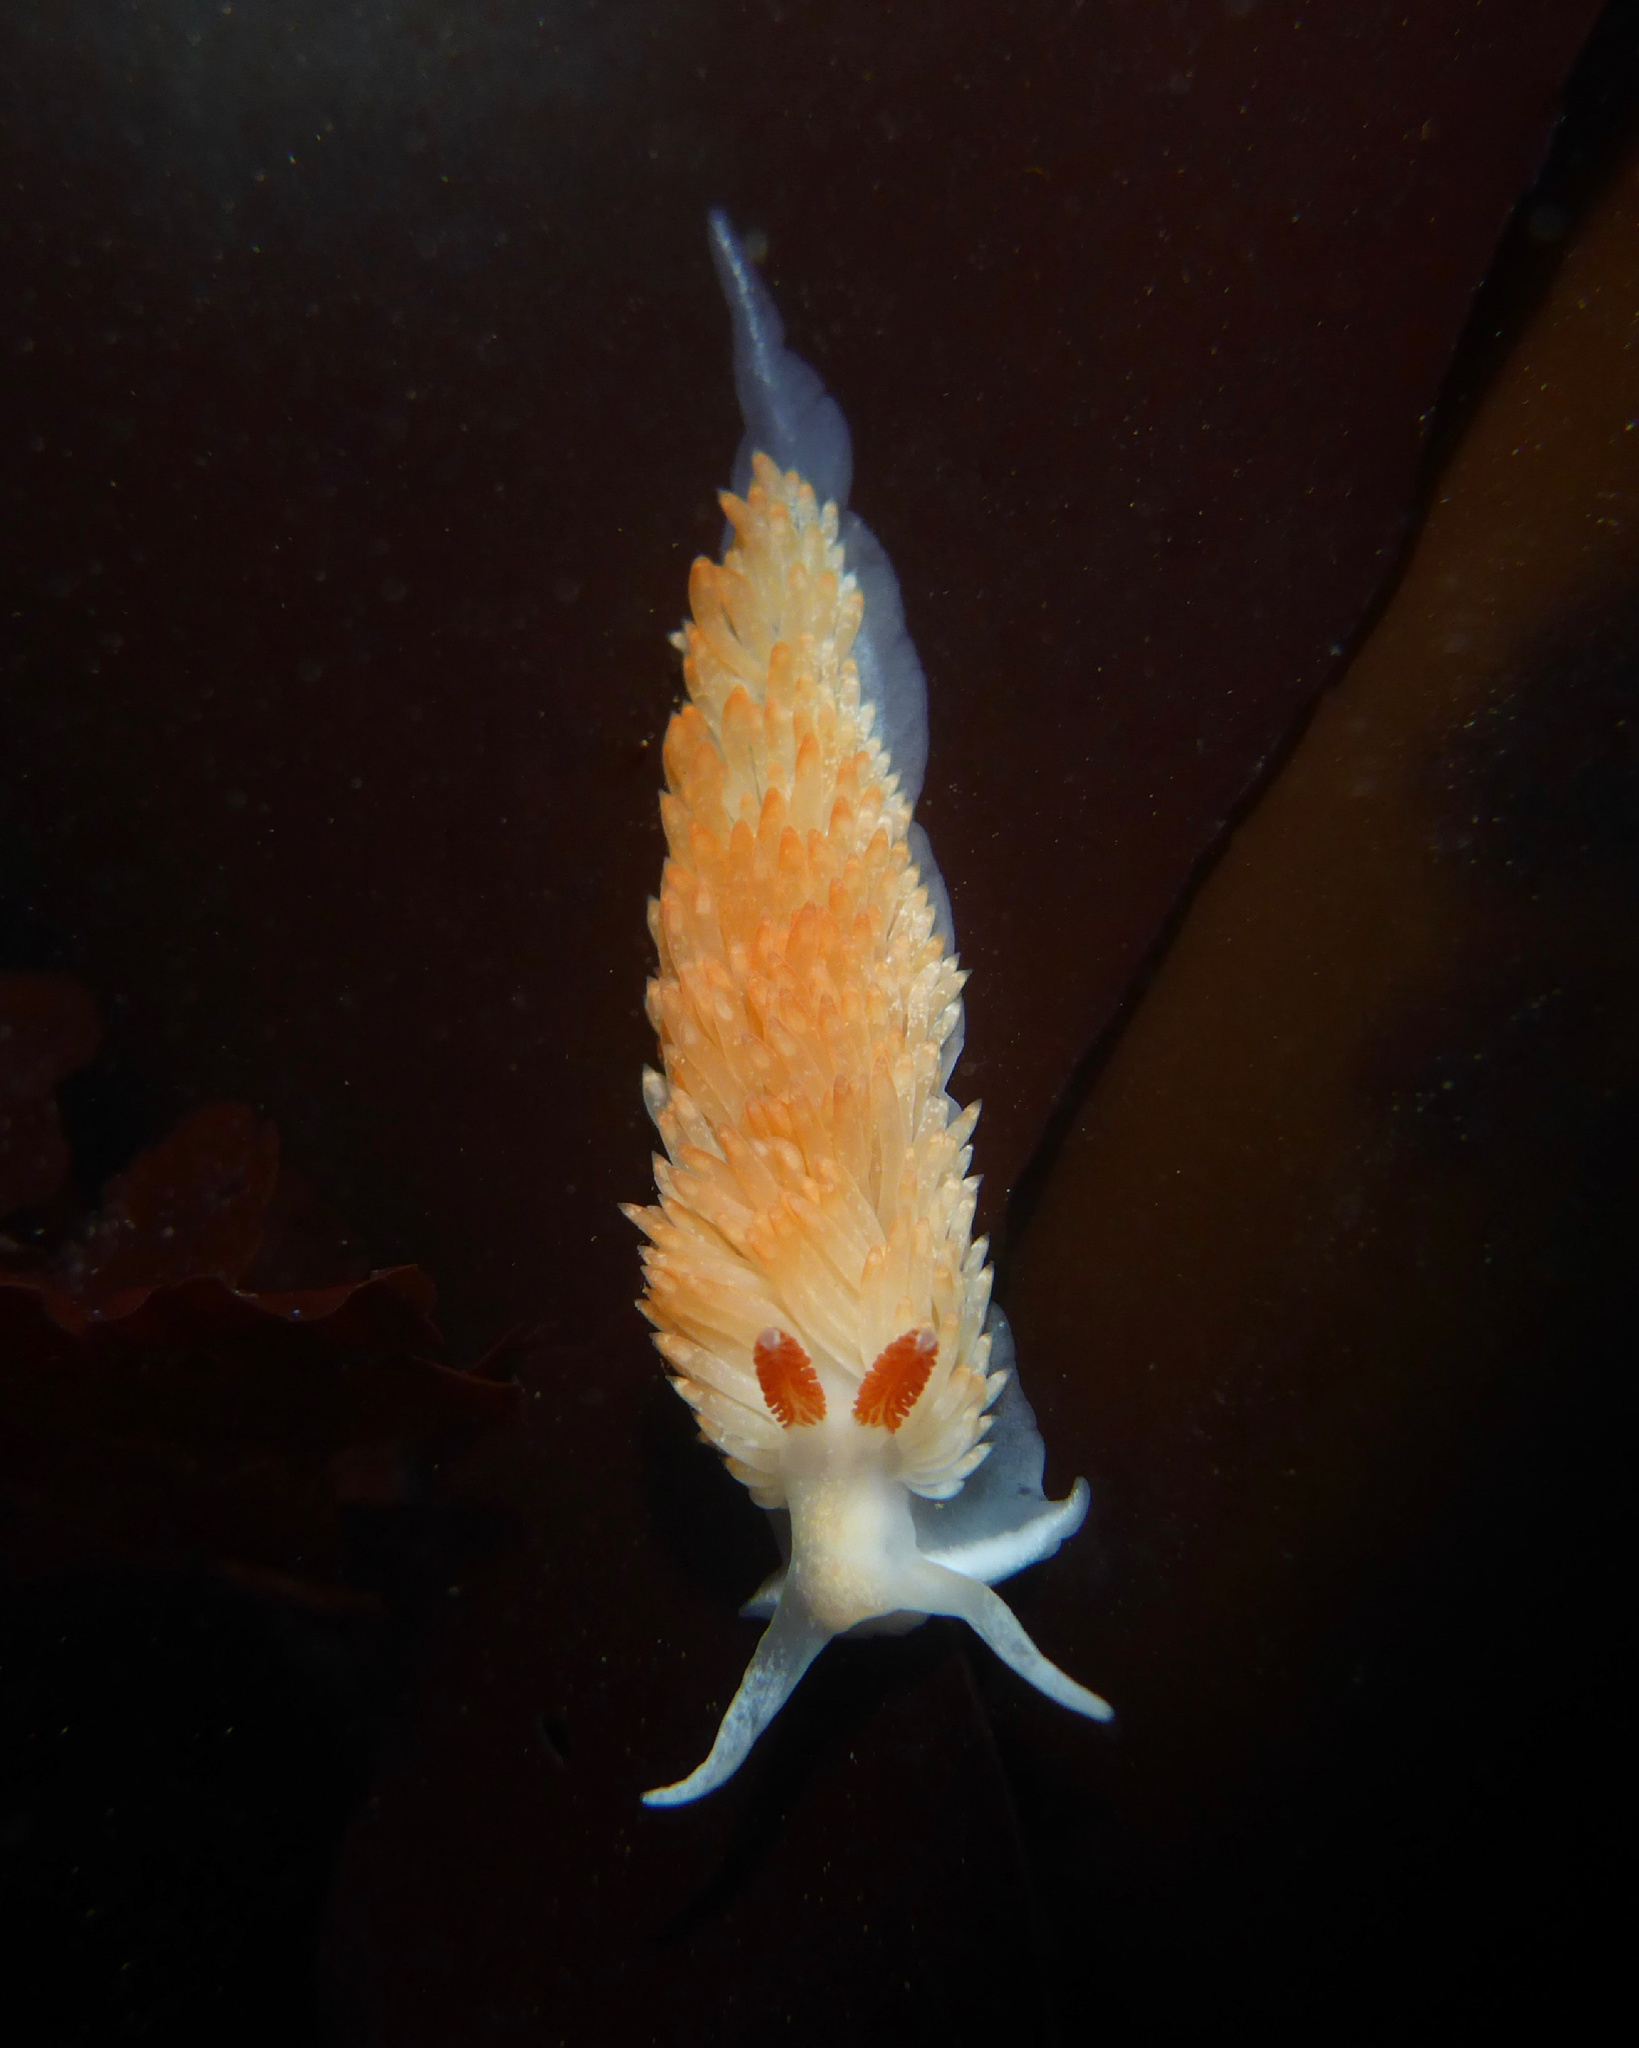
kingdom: Animalia
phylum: Mollusca
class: Gastropoda
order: Nudibranchia
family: Aeolidiidae
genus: Anteaeolidiella
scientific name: Anteaeolidiella oliviae
